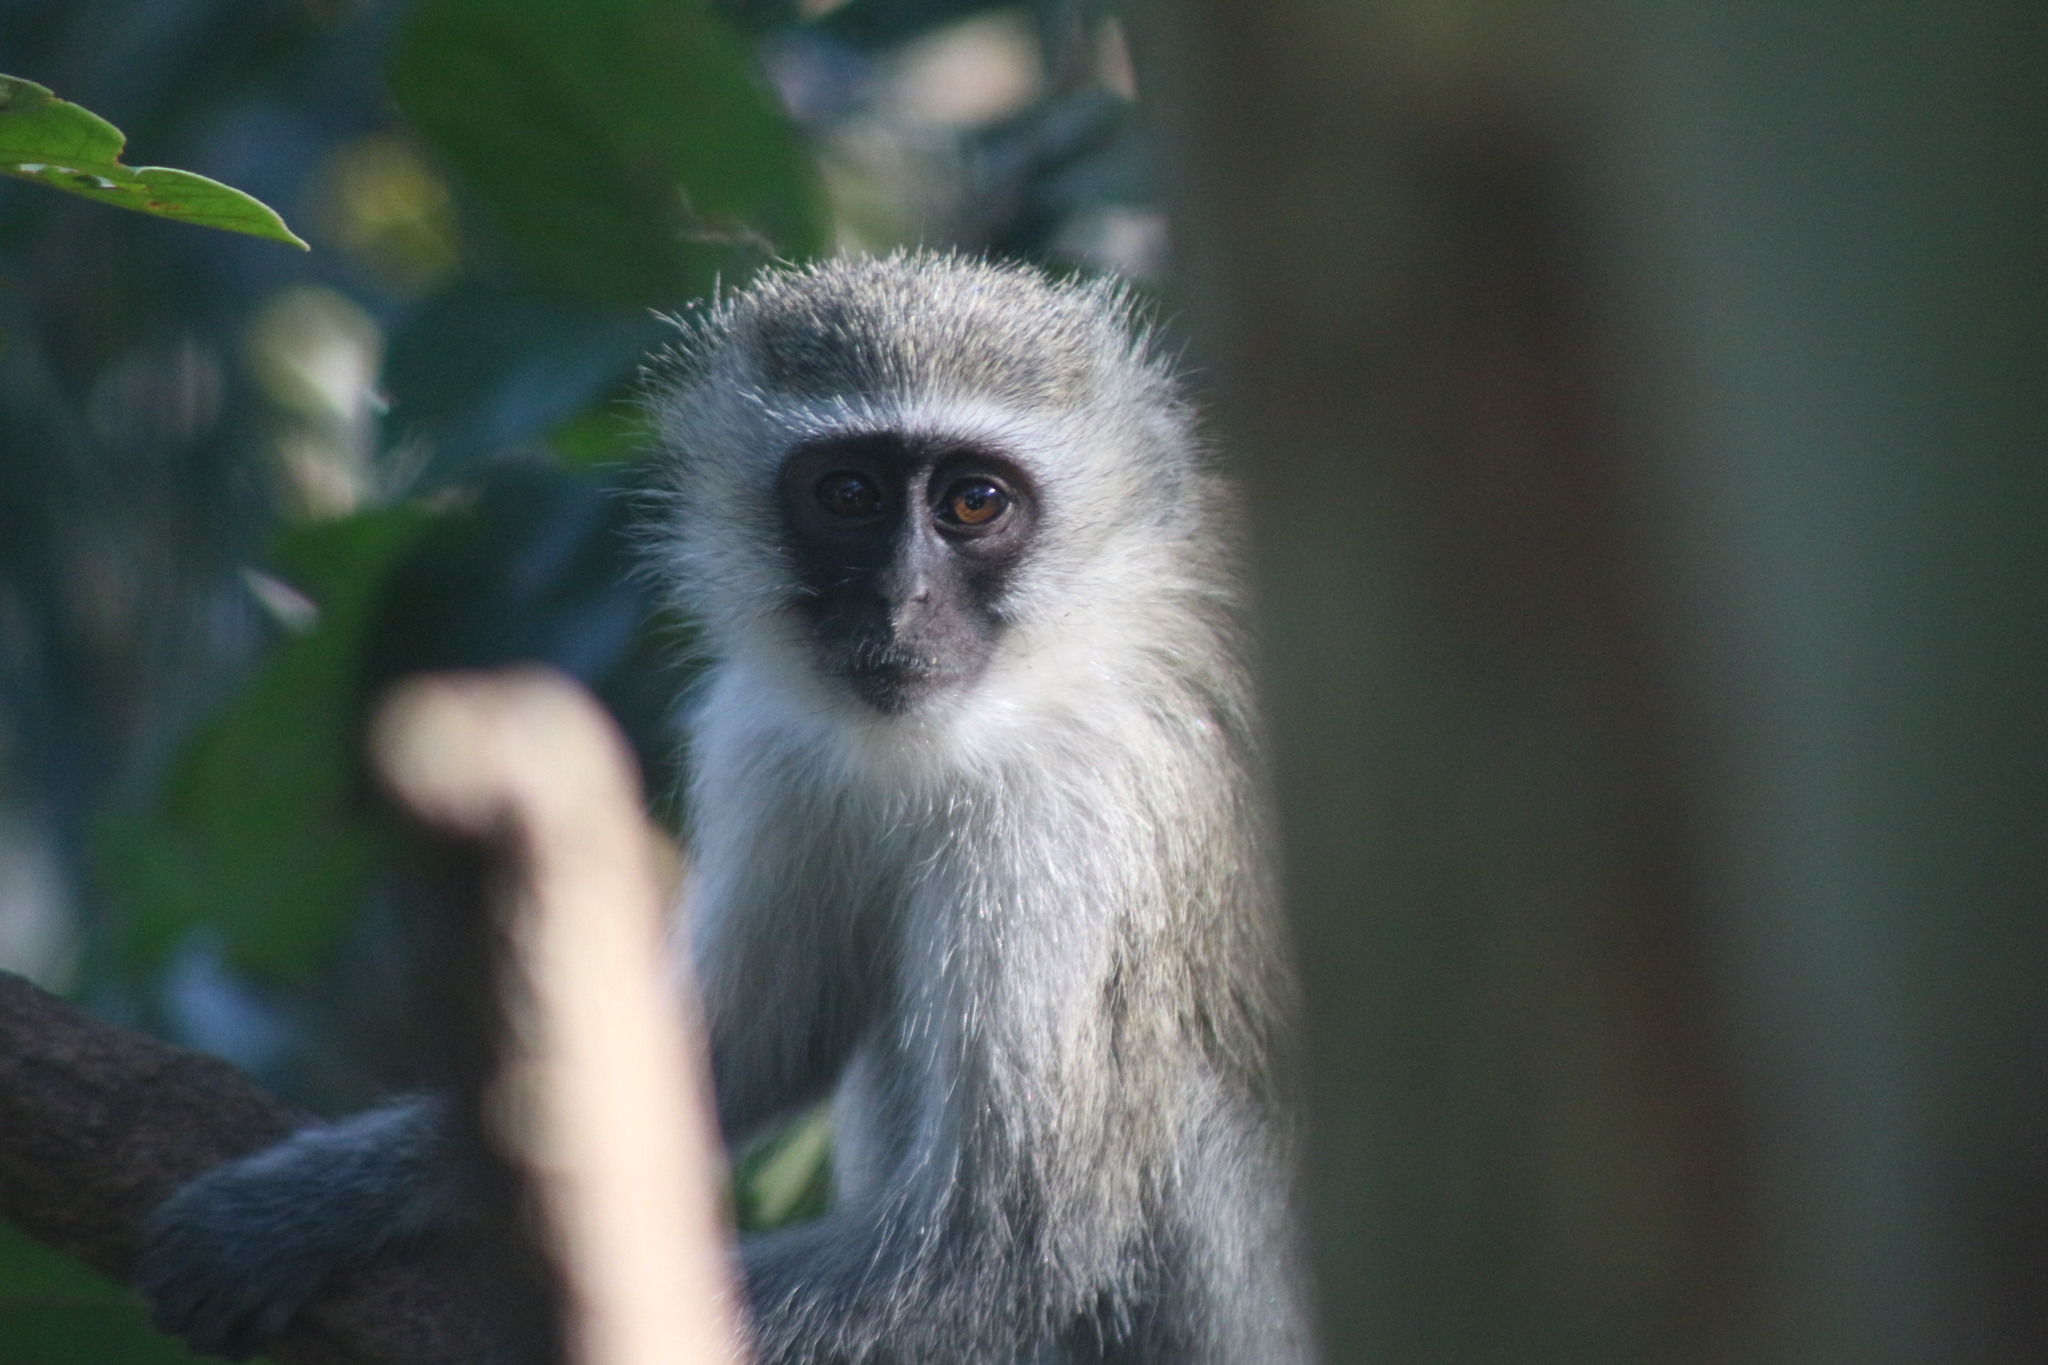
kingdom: Animalia
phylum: Chordata
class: Mammalia
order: Primates
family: Cercopithecidae
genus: Chlorocebus
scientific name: Chlorocebus pygerythrus
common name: Vervet monkey
